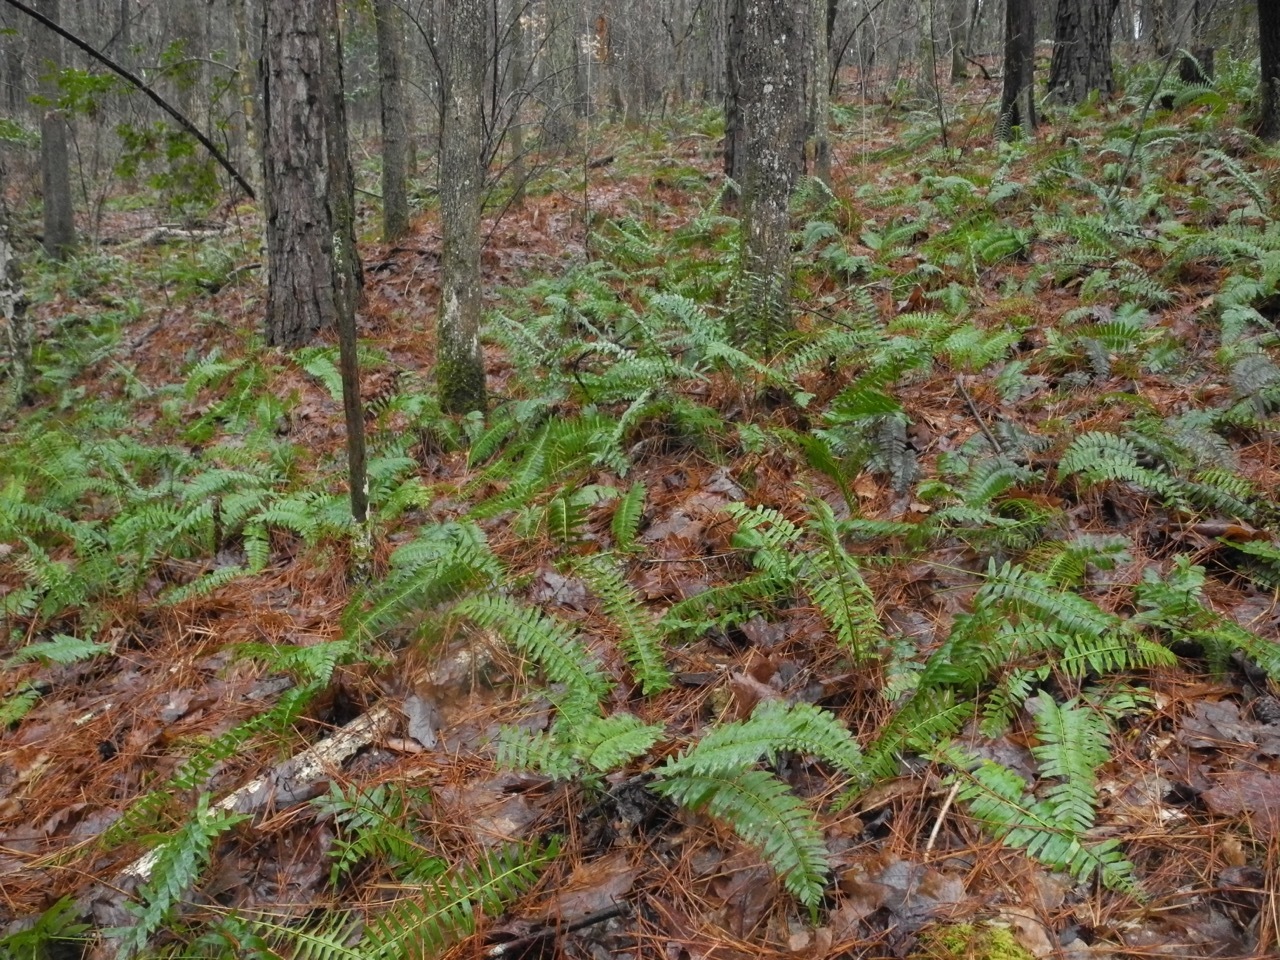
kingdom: Plantae
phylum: Tracheophyta
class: Polypodiopsida
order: Polypodiales
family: Dryopteridaceae
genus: Polystichum
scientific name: Polystichum acrostichoides
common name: Christmas fern
